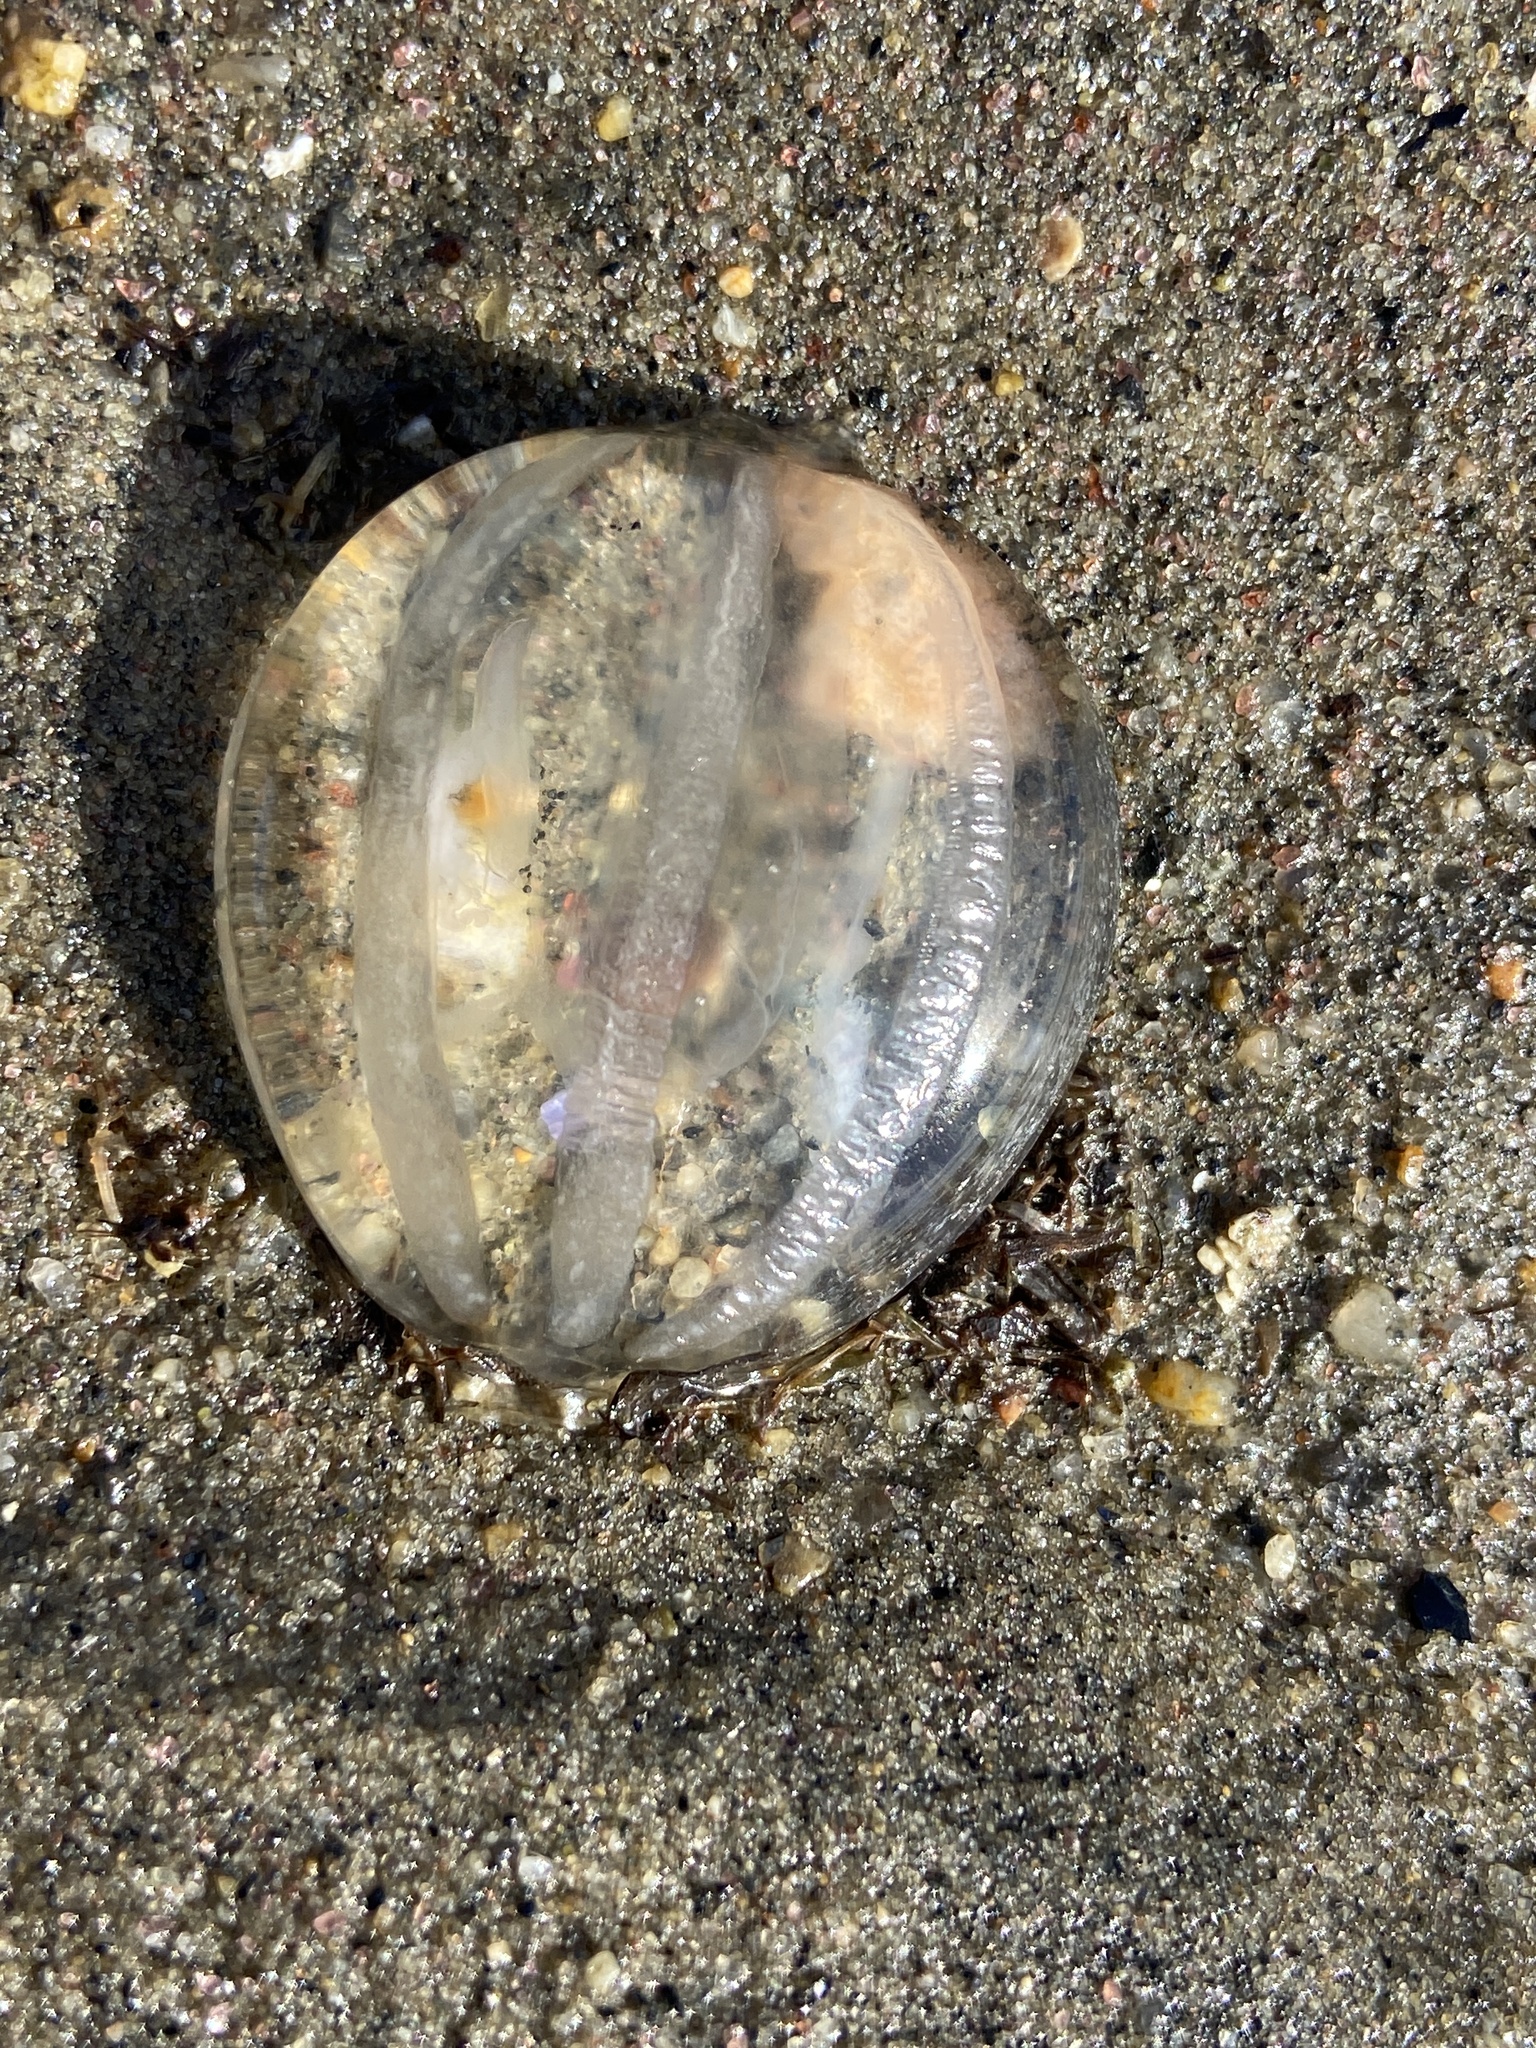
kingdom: Animalia
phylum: Ctenophora
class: Tentaculata
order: Cydippida
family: Pleurobrachiidae
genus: Pleurobrachia
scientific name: Pleurobrachia pileus
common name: Sea gooseberry
